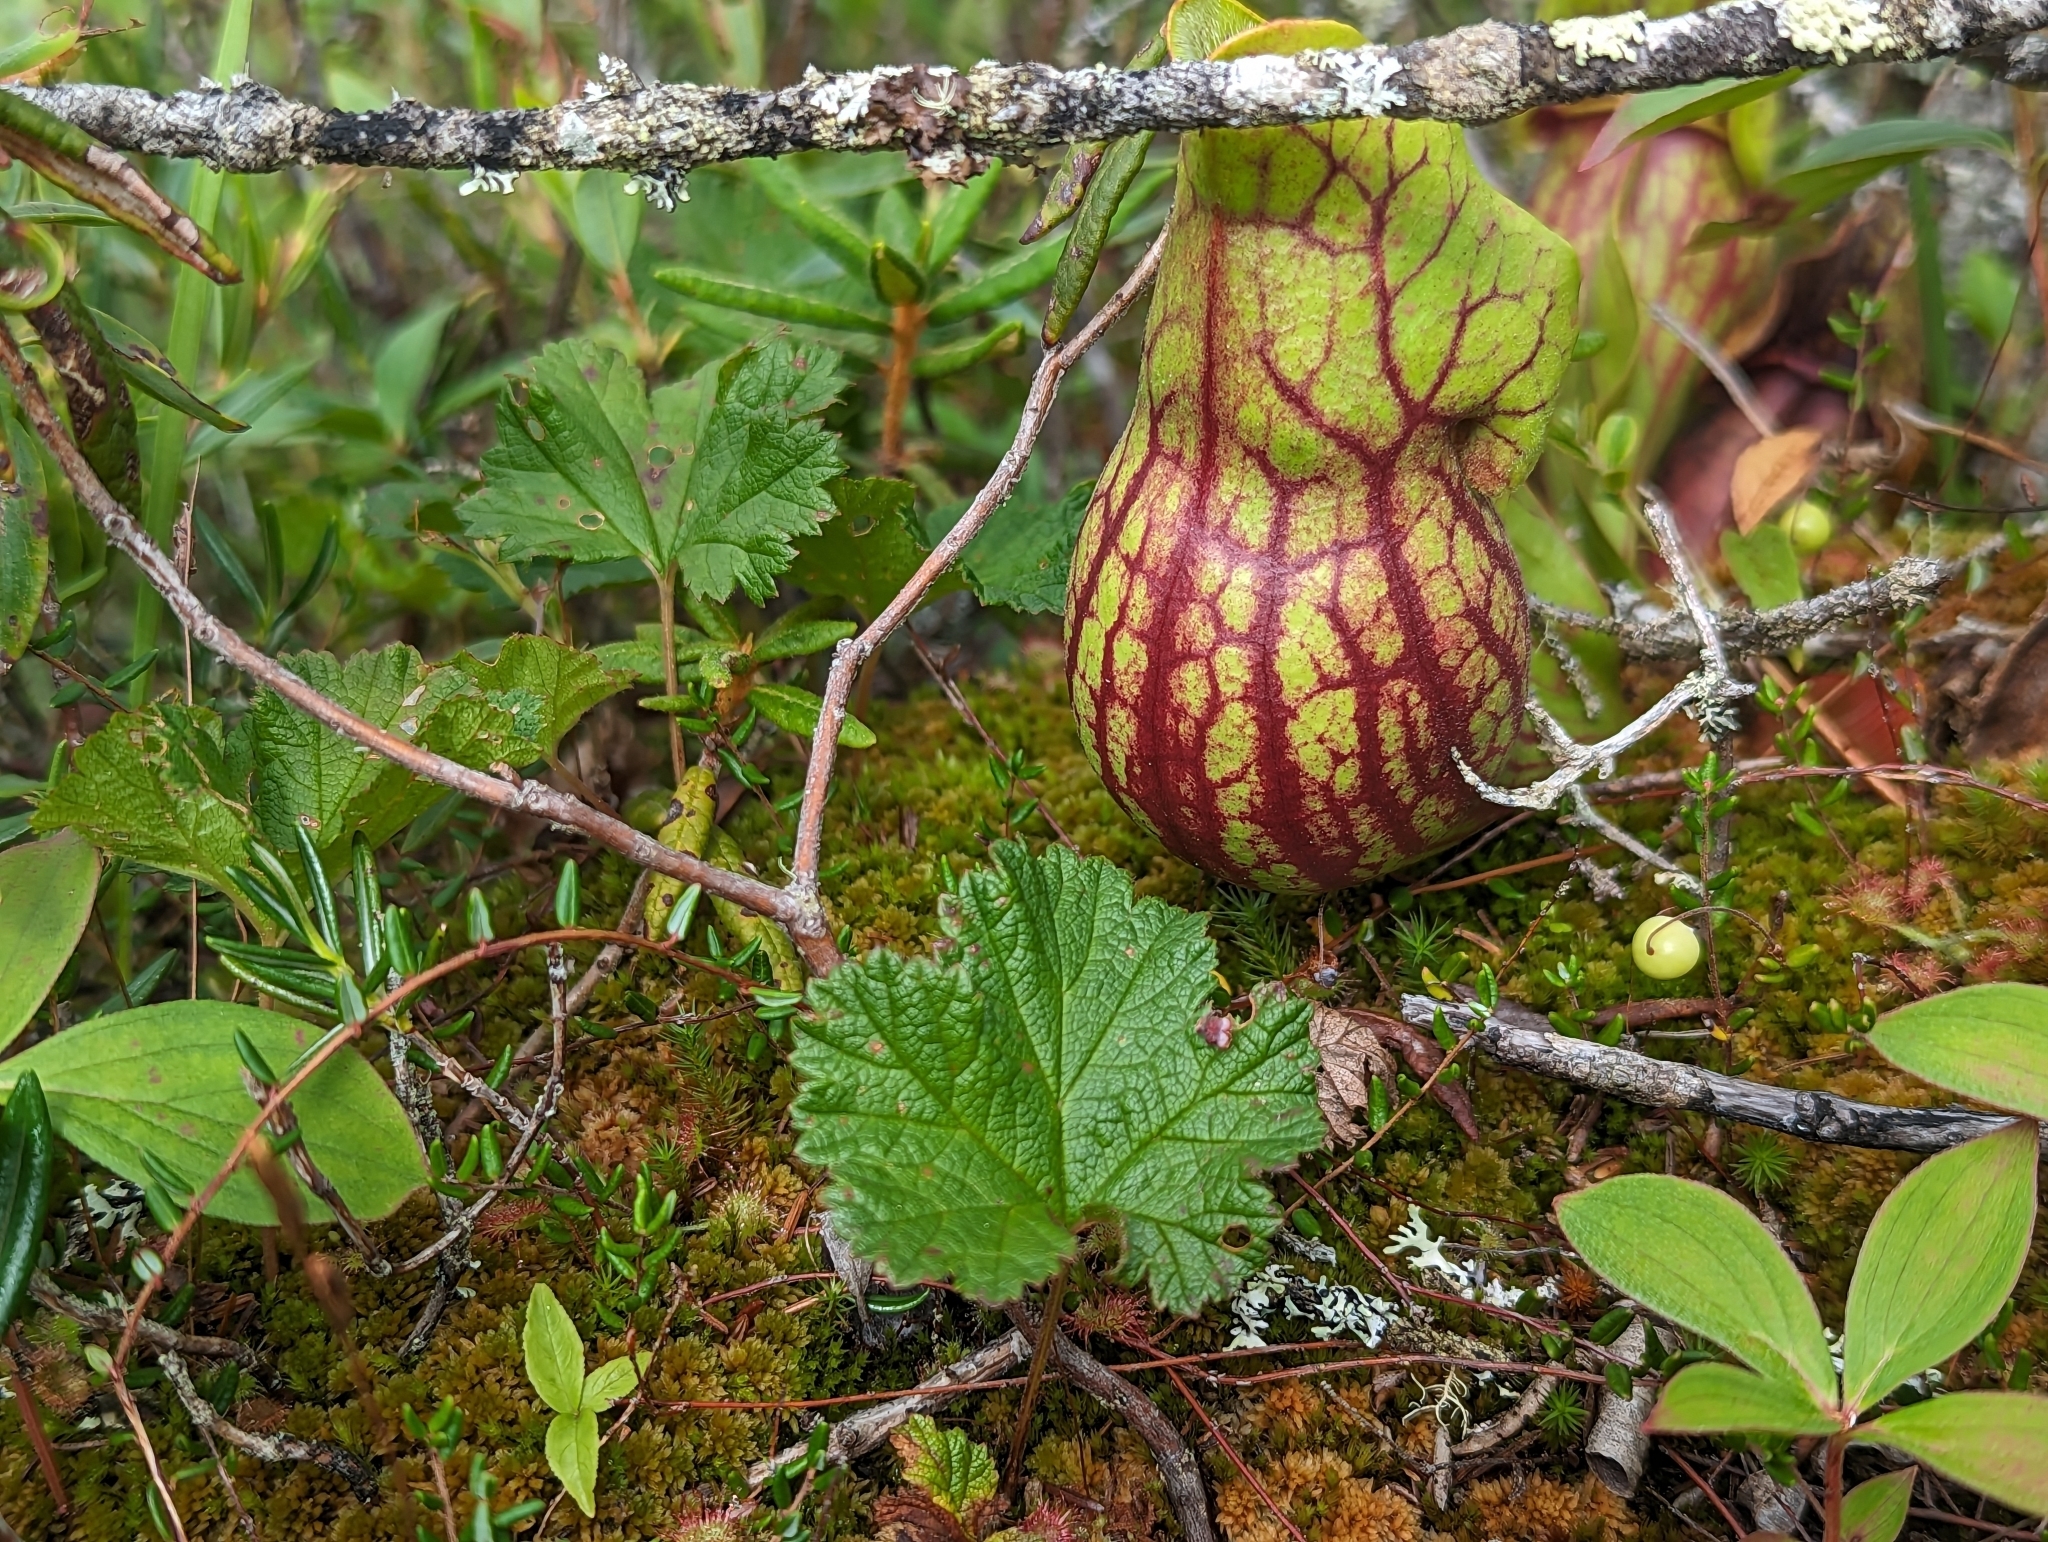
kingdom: Plantae
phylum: Tracheophyta
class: Magnoliopsida
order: Rosales
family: Rosaceae
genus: Rubus
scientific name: Rubus chamaemorus
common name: Cloudberry
